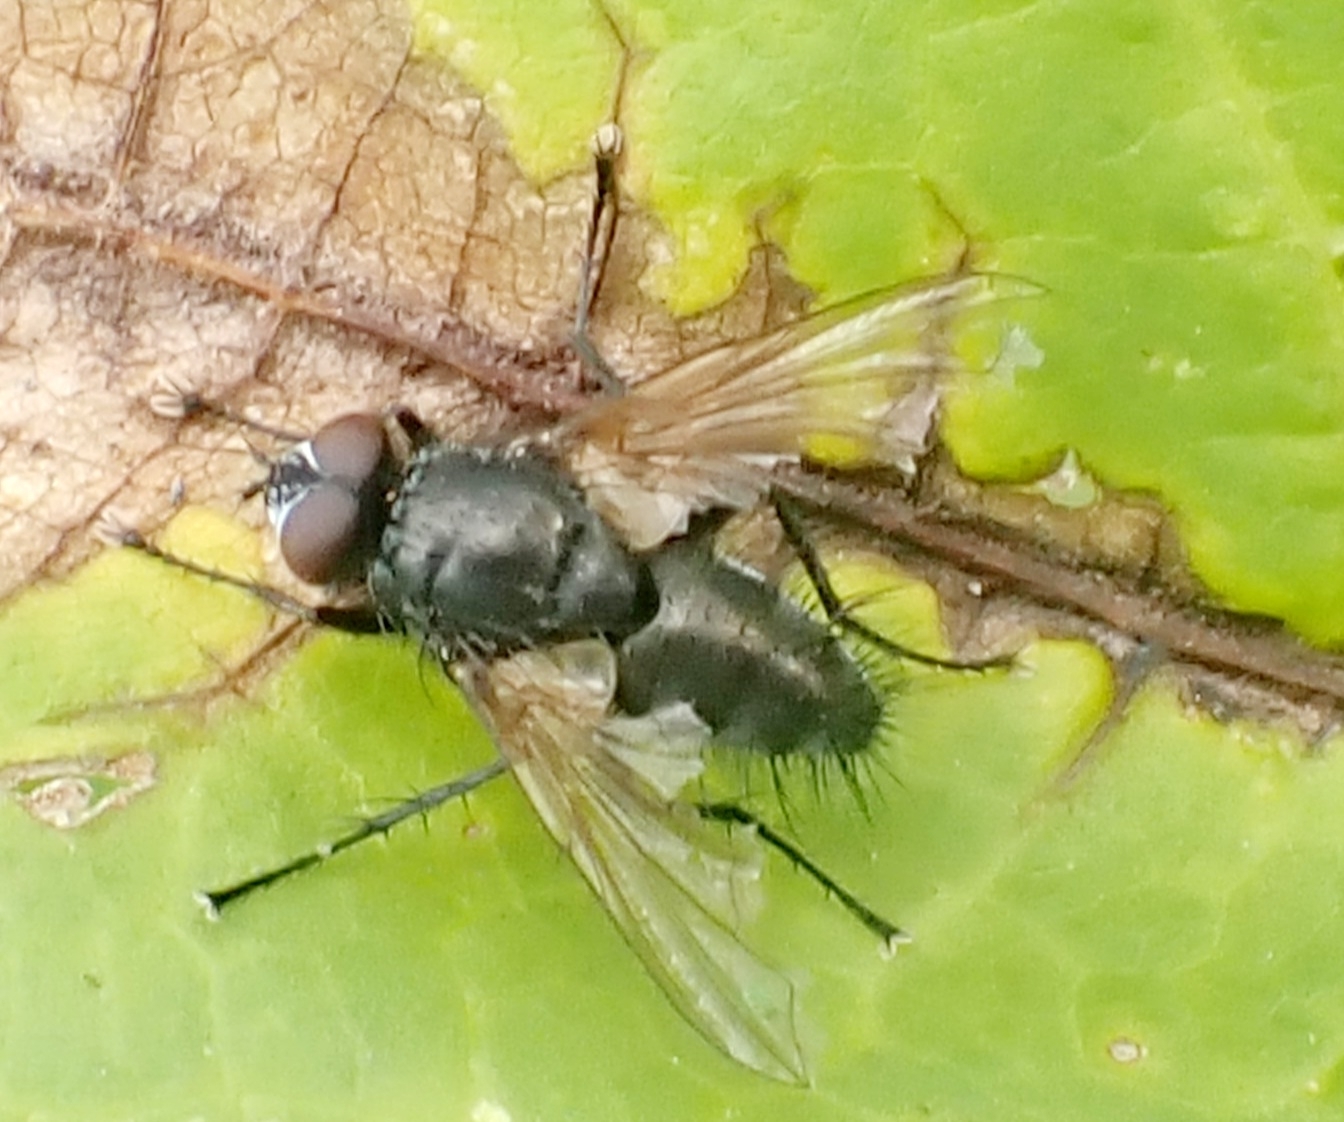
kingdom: Animalia
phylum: Arthropoda
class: Insecta
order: Diptera
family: Tachinidae
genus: Macquartia
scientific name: Macquartia tenebricosa
